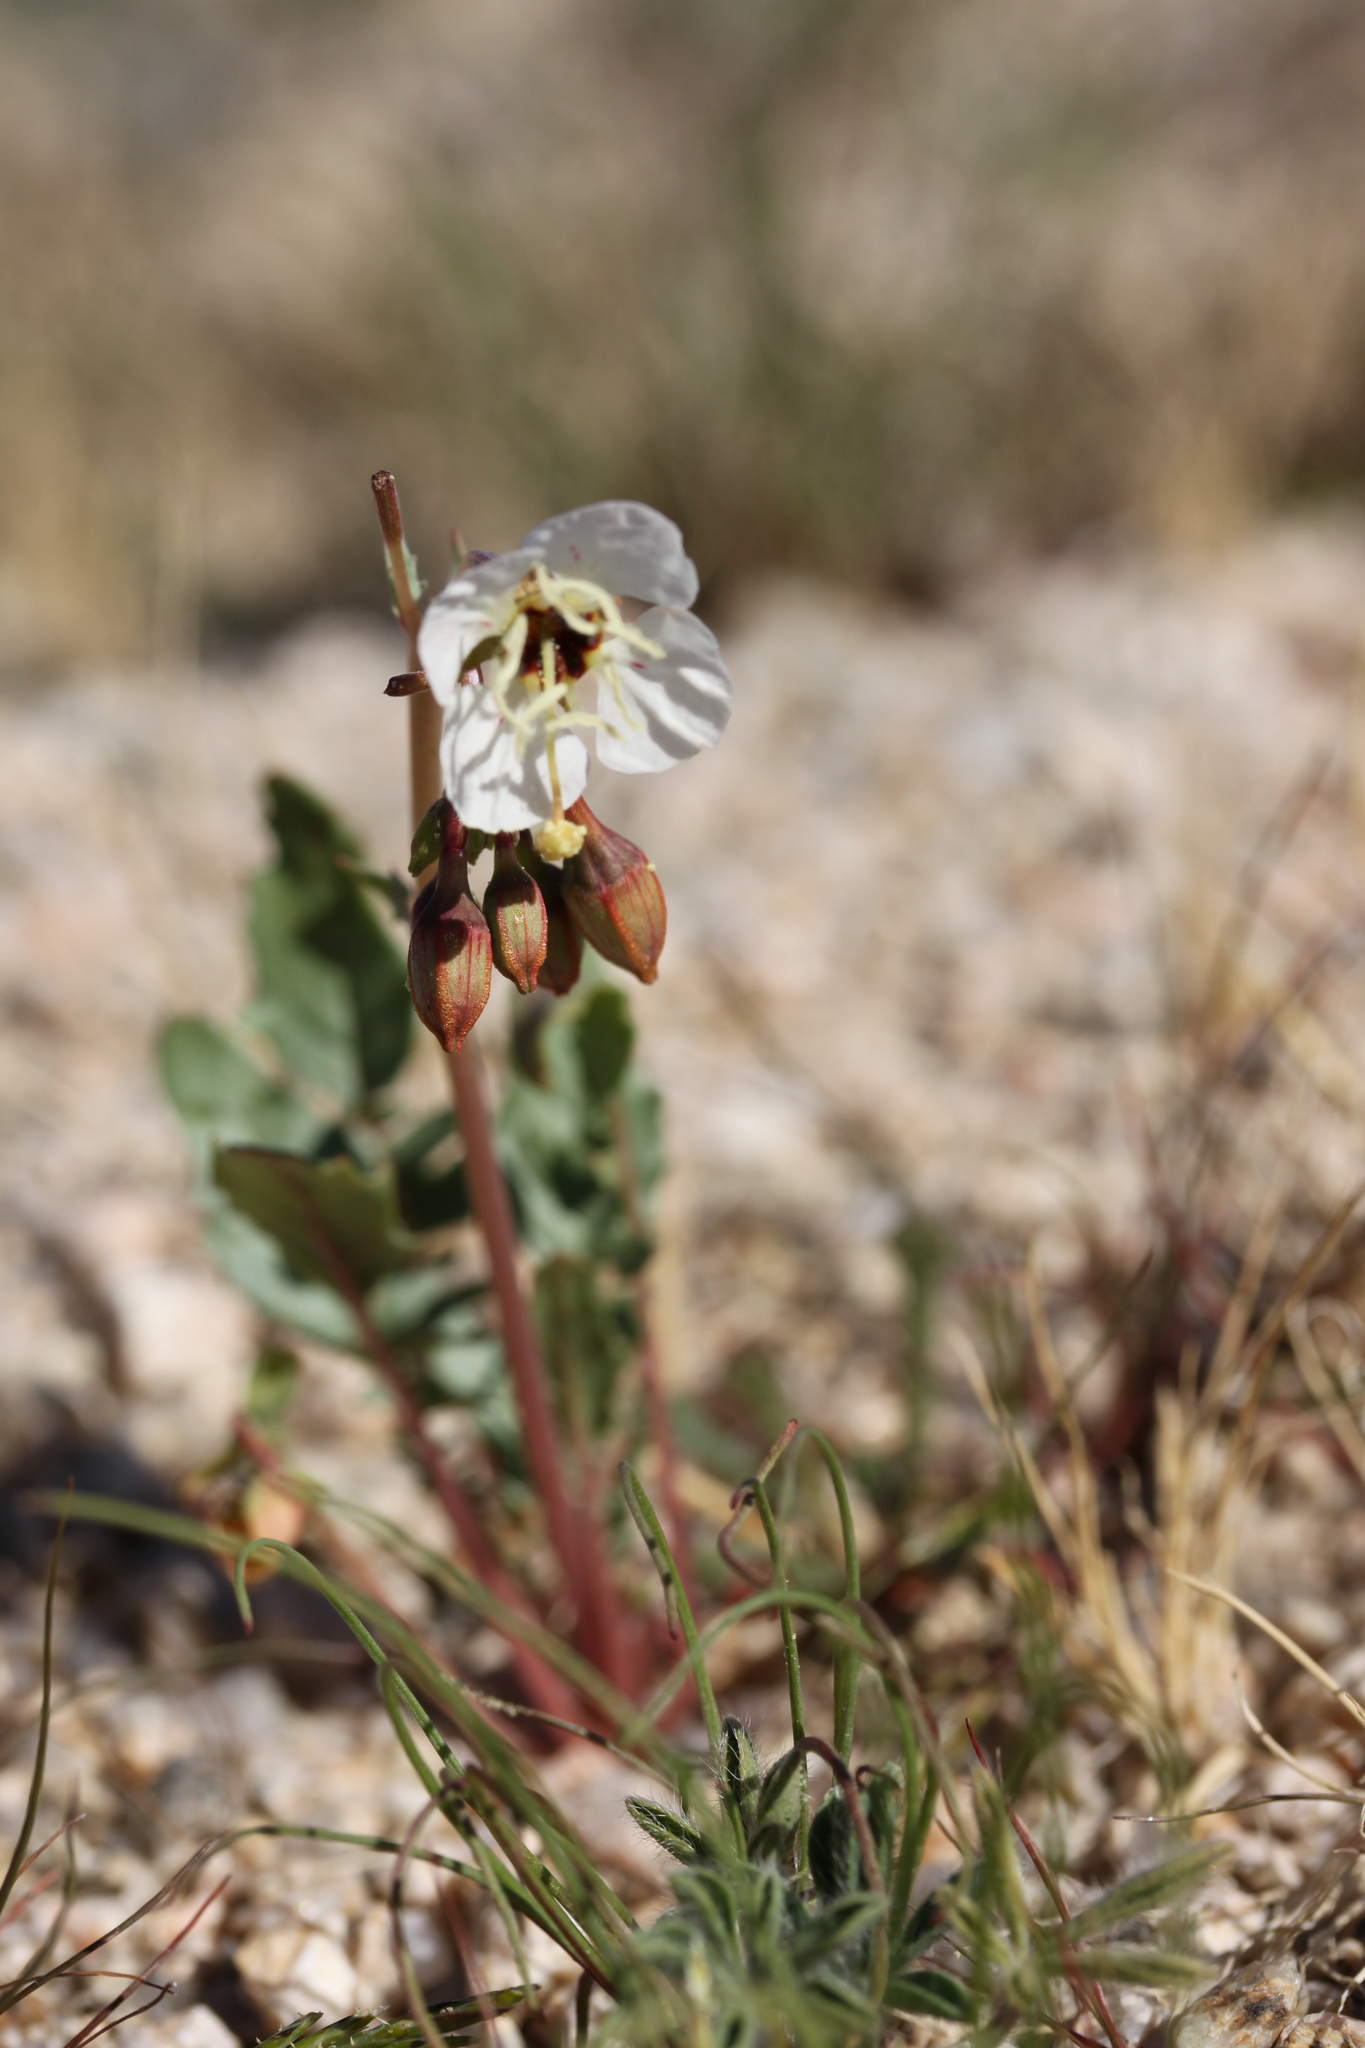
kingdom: Plantae
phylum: Tracheophyta
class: Magnoliopsida
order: Myrtales
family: Onagraceae
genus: Chylismia
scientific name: Chylismia claviformis
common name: Browneyes
